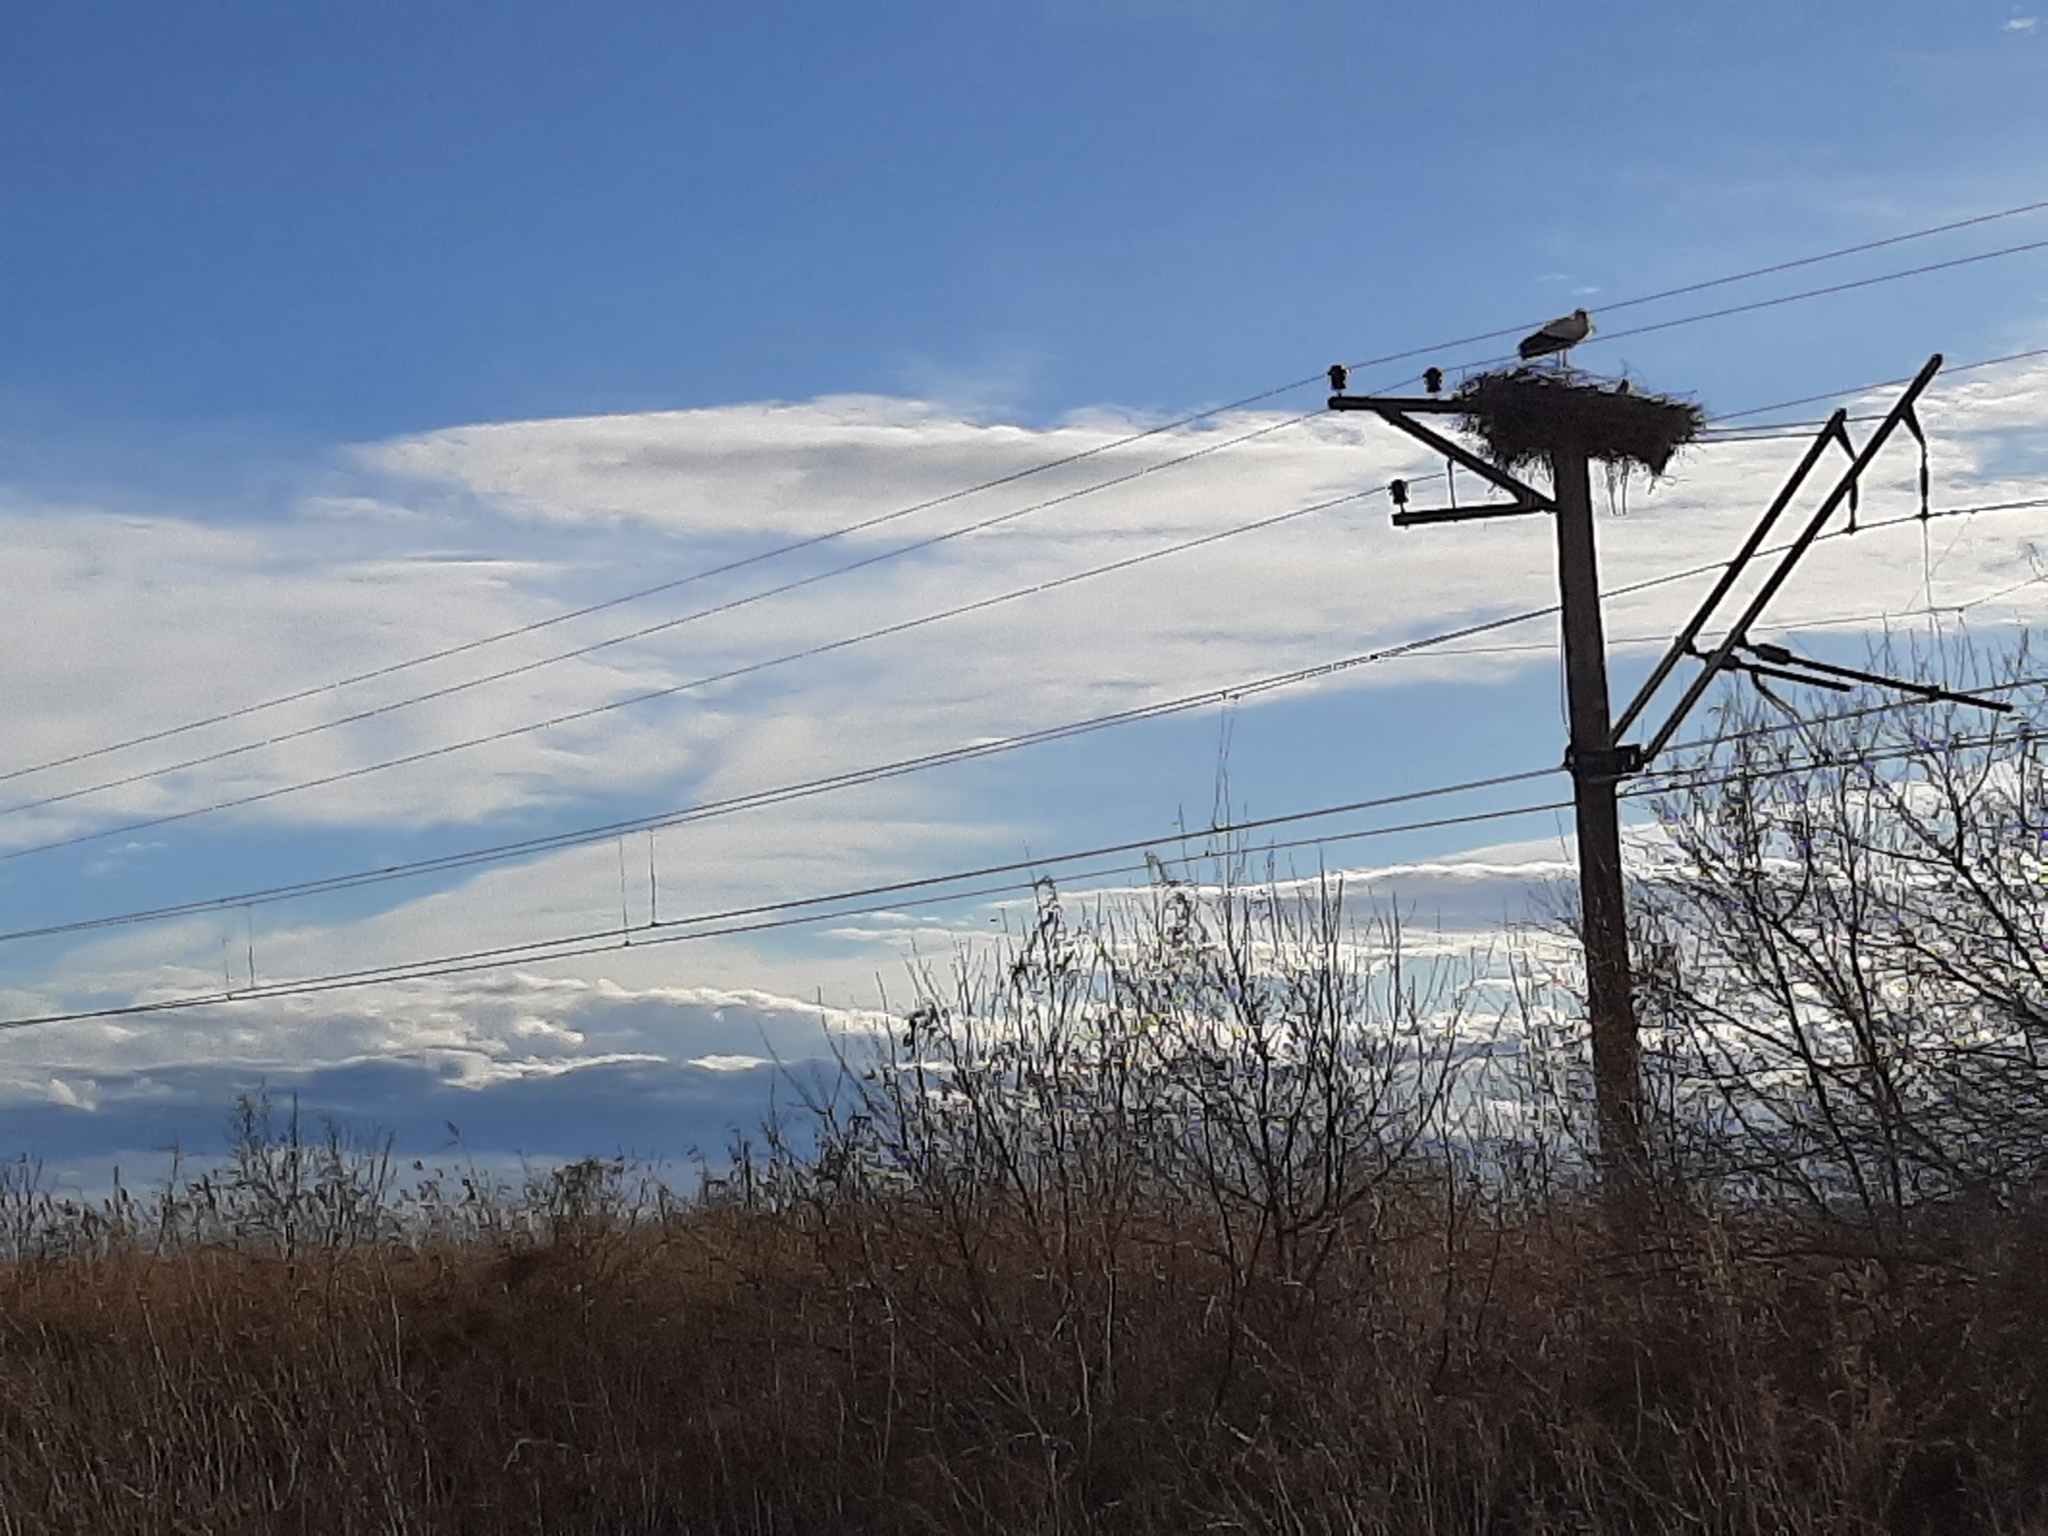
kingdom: Animalia
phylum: Chordata
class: Aves
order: Ciconiiformes
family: Ciconiidae
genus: Ciconia
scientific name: Ciconia ciconia
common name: White stork
